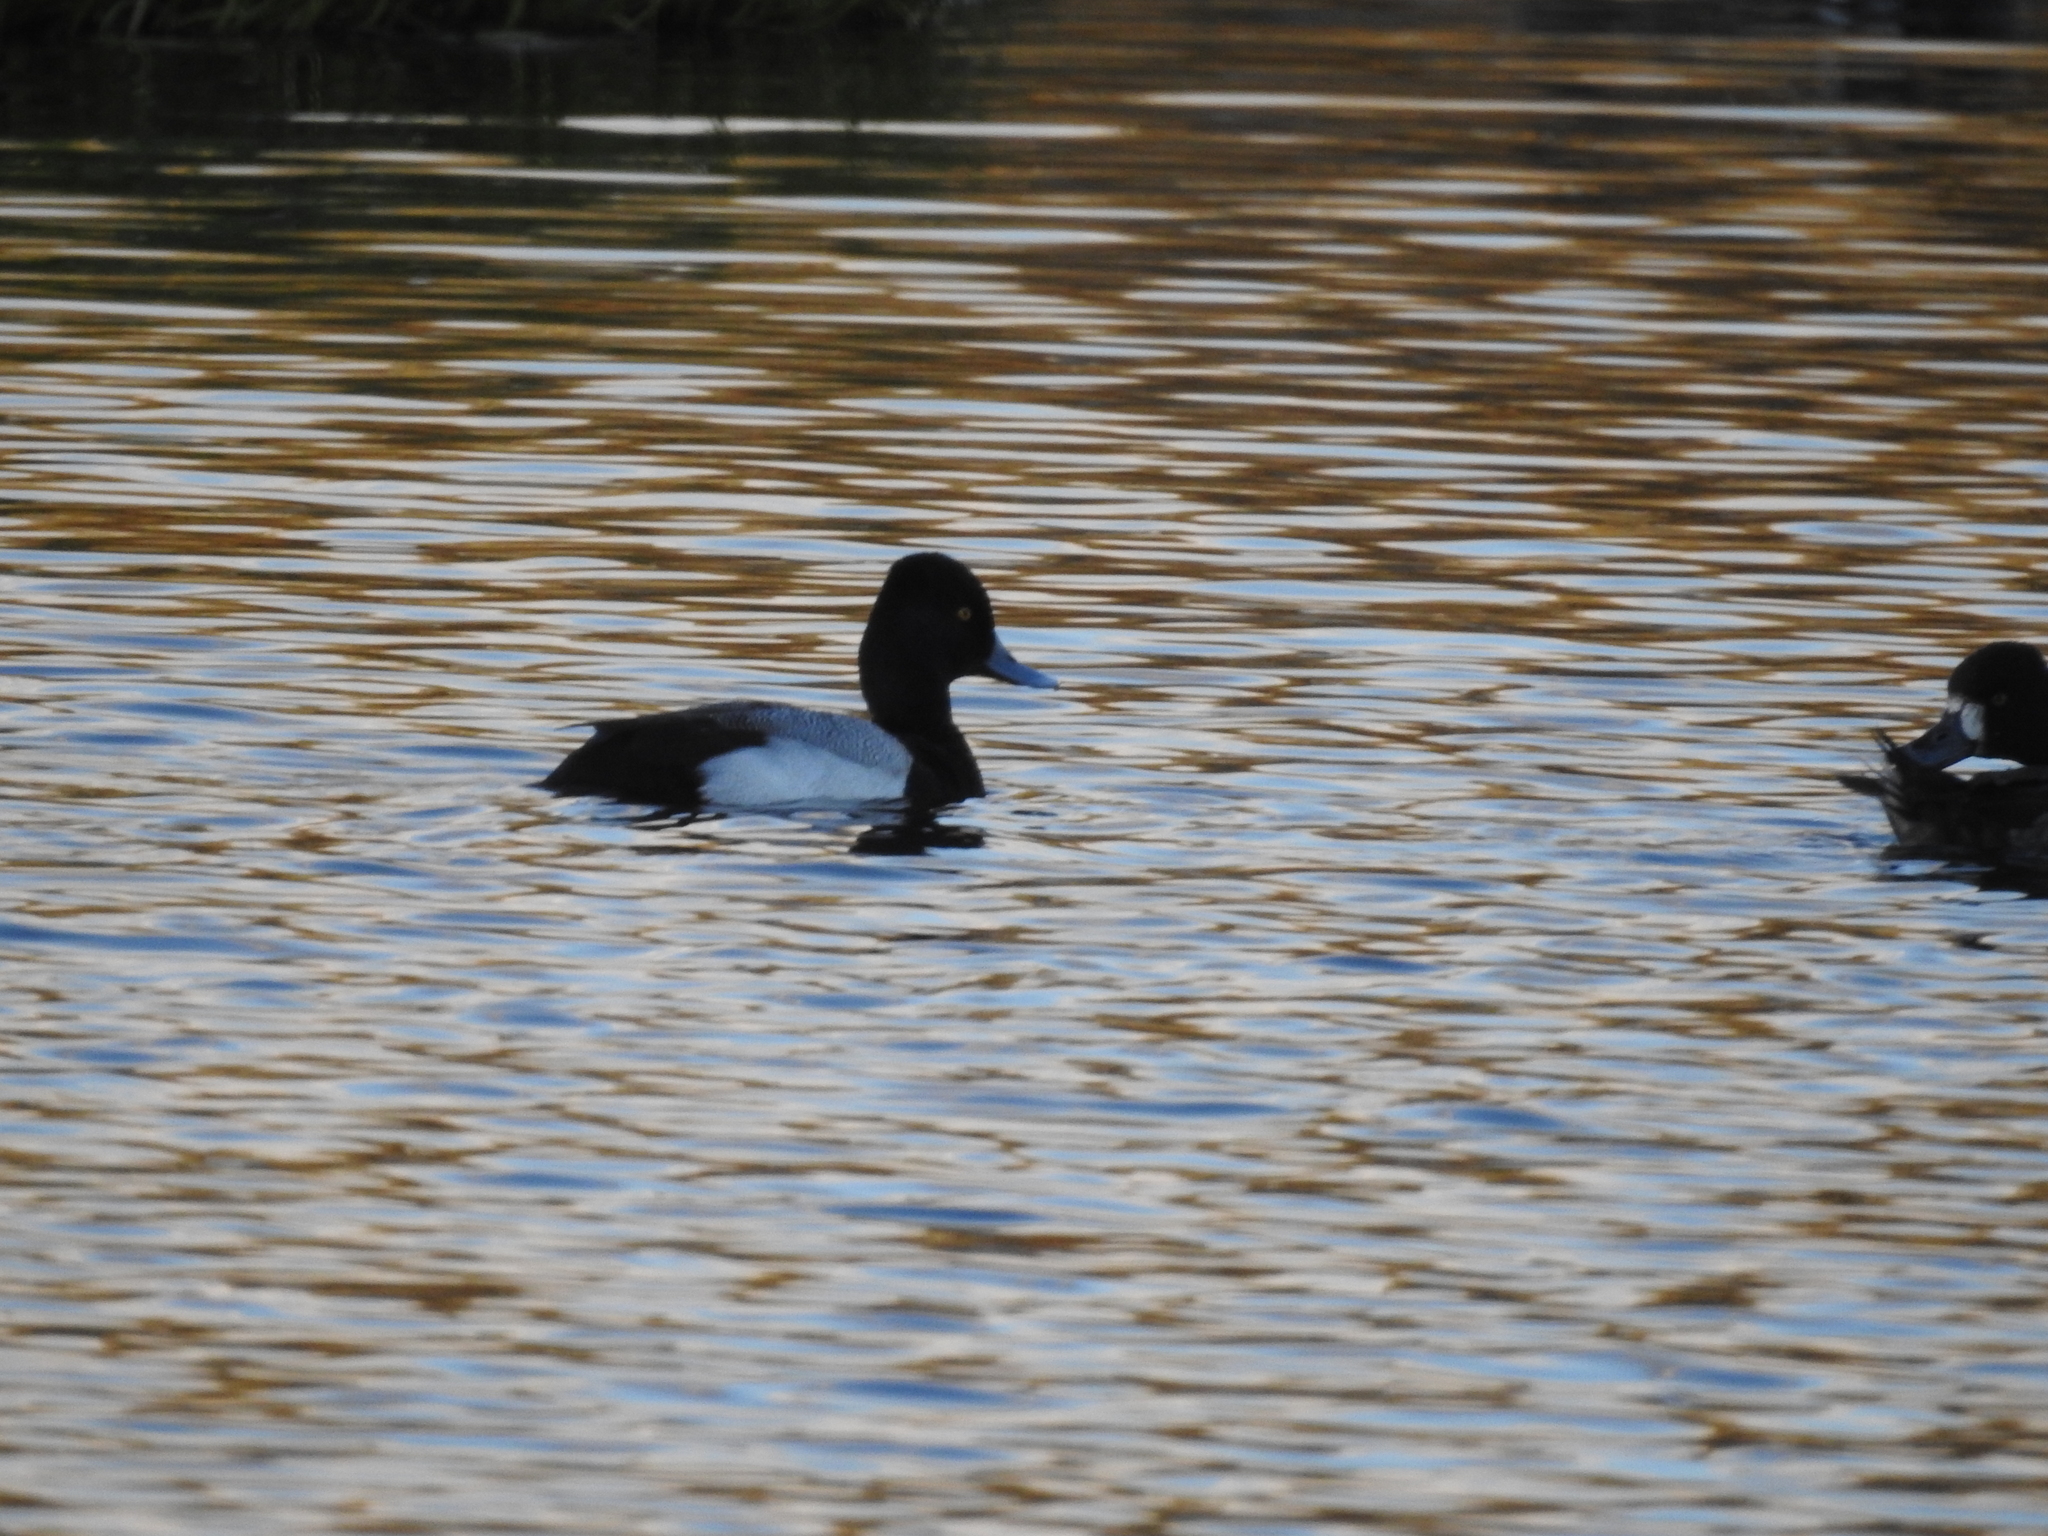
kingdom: Animalia
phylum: Chordata
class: Aves
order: Anseriformes
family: Anatidae
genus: Aythya
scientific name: Aythya affinis
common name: Lesser scaup
